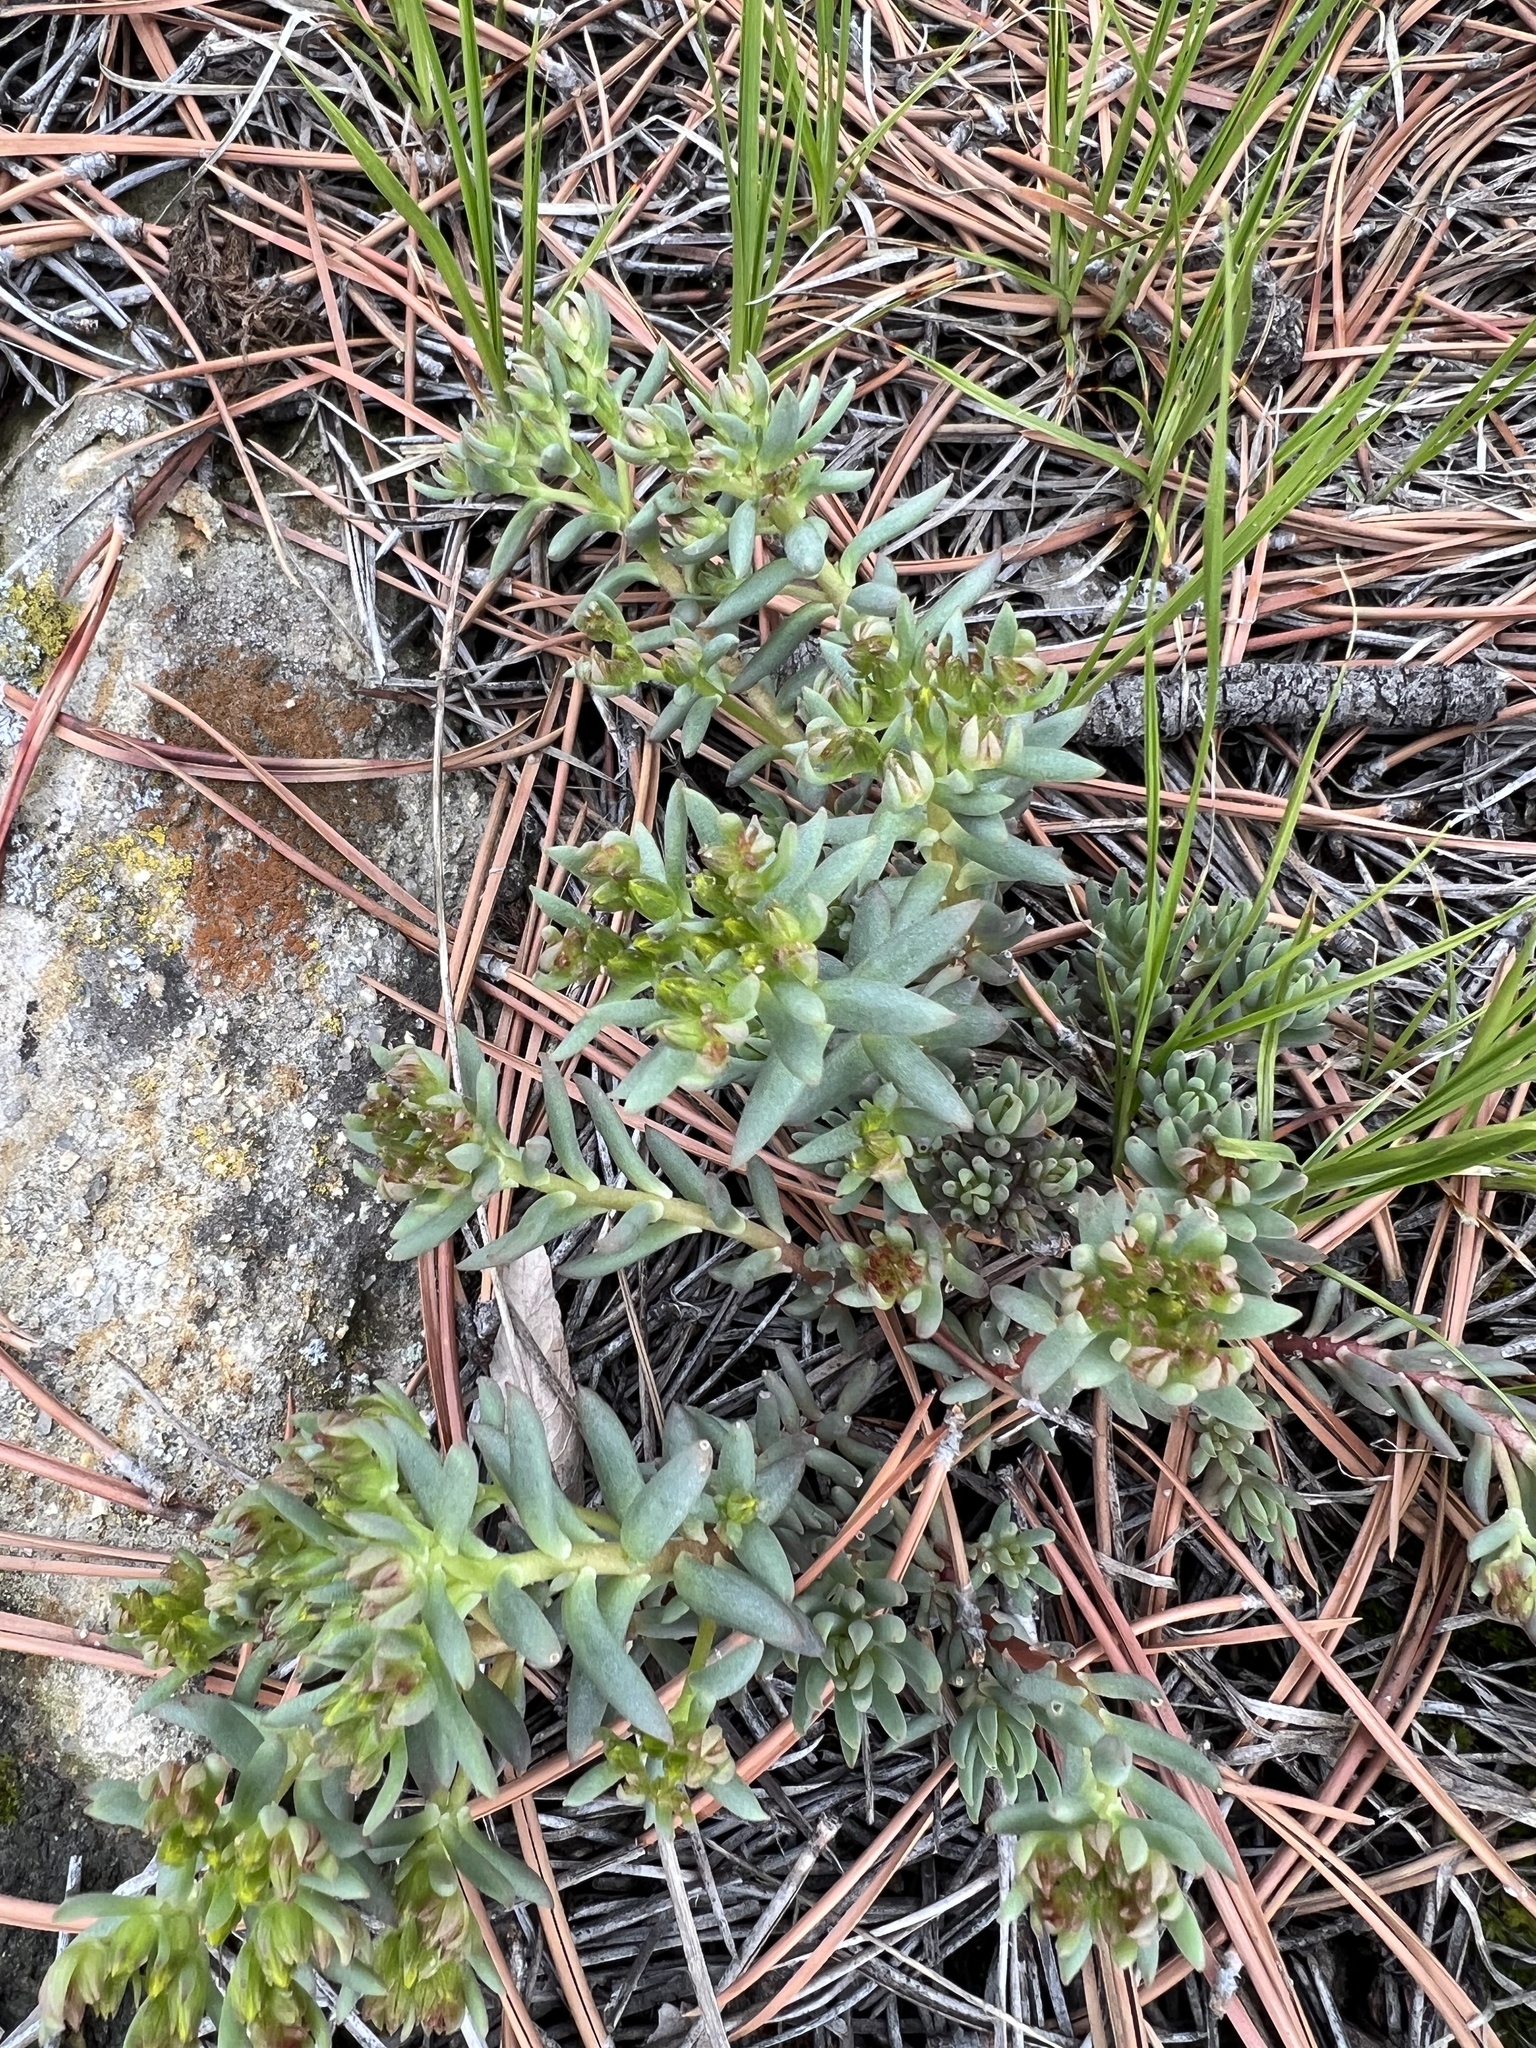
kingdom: Plantae
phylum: Tracheophyta
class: Magnoliopsida
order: Saxifragales
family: Crassulaceae
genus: Sedum
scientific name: Sedum lanceolatum
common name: Common stonecrop
